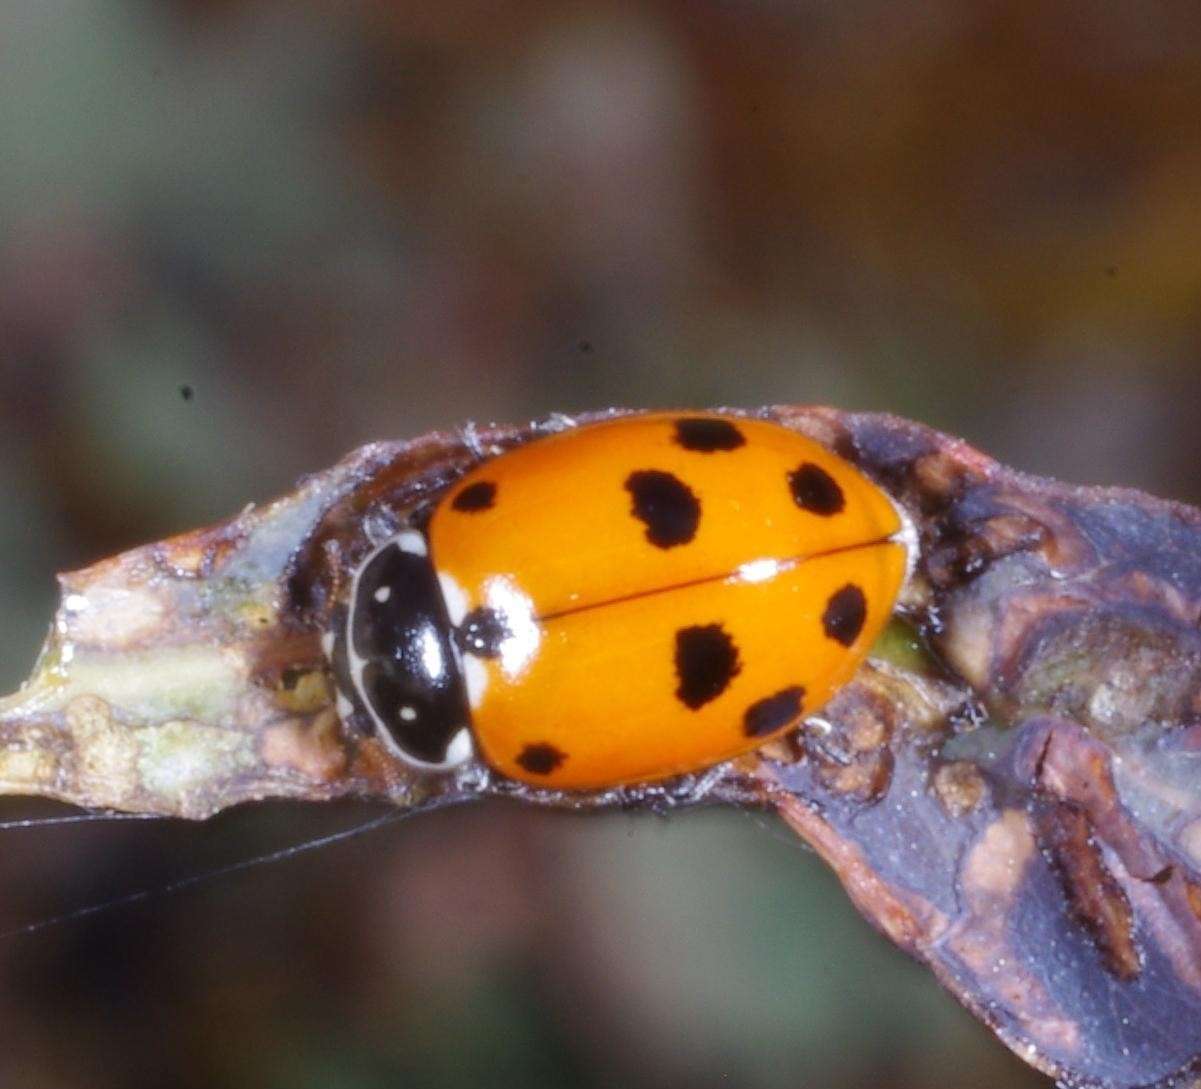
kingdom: Animalia
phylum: Arthropoda
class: Insecta
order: Coleoptera
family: Coccinellidae
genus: Hippodamia
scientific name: Hippodamia variegata
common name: Ladybird beetle
